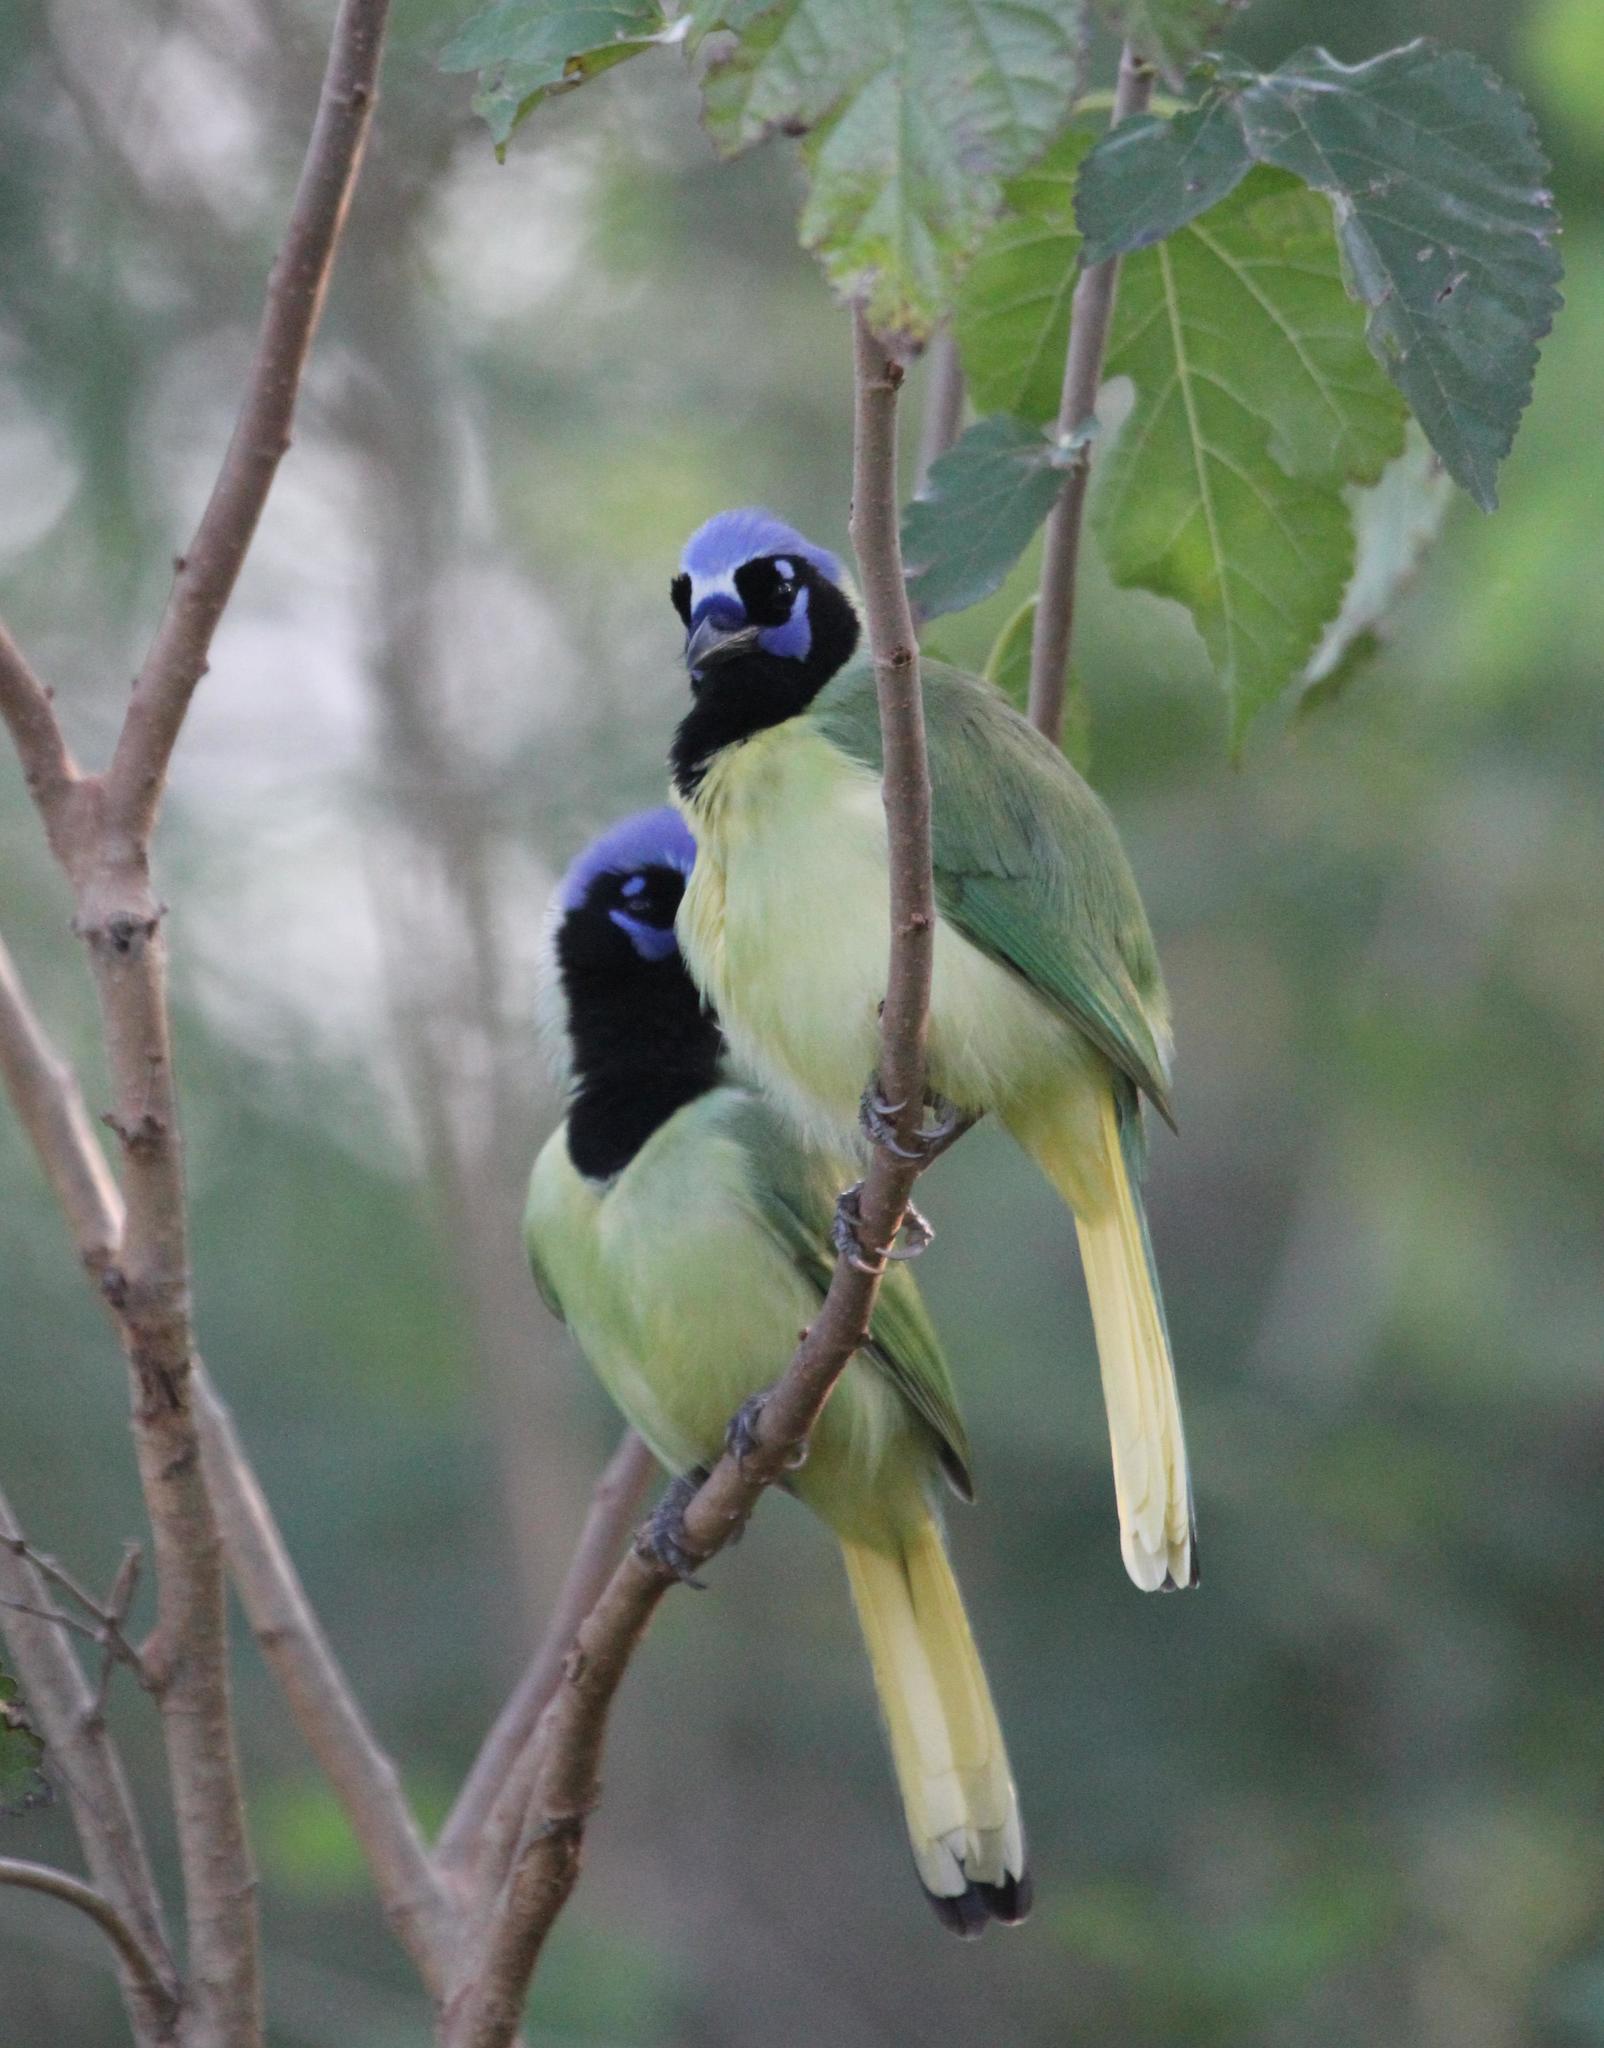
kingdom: Animalia
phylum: Chordata
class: Aves
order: Passeriformes
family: Corvidae
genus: Cyanocorax
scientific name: Cyanocorax yncas
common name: Green jay
